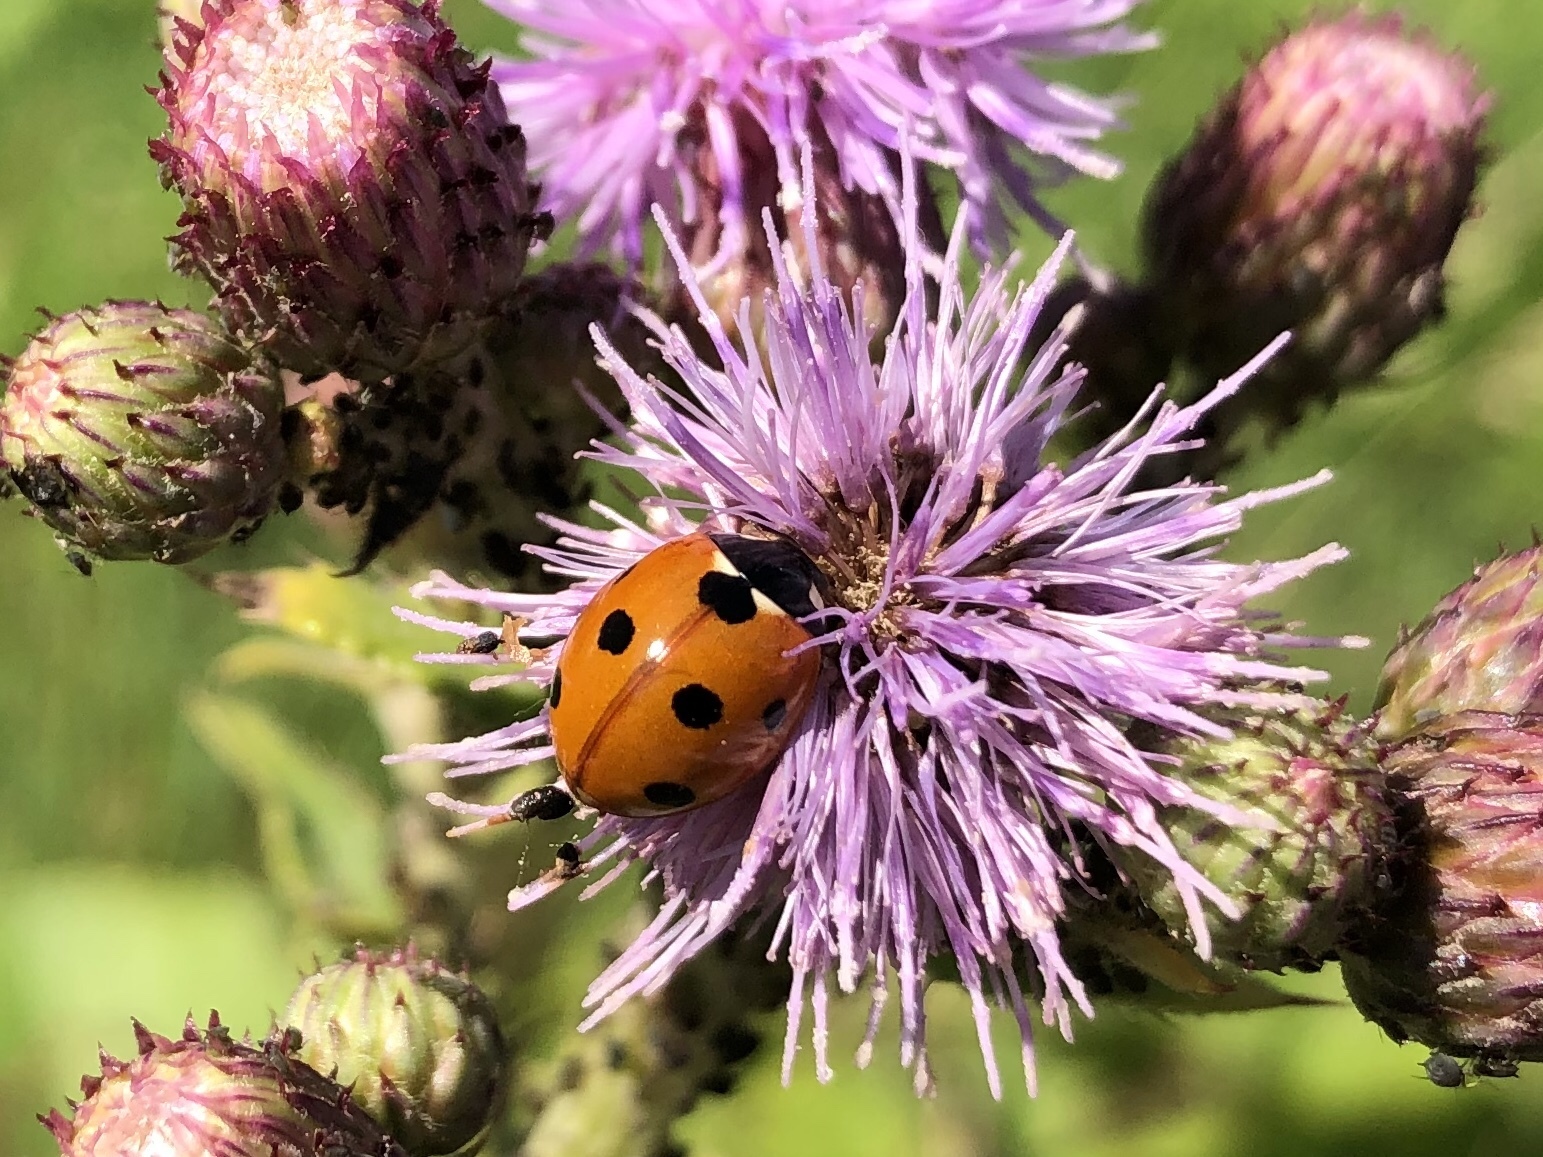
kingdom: Animalia
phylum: Arthropoda
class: Insecta
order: Coleoptera
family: Coccinellidae
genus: Coccinella
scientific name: Coccinella septempunctata
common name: Sevenspotted lady beetle
